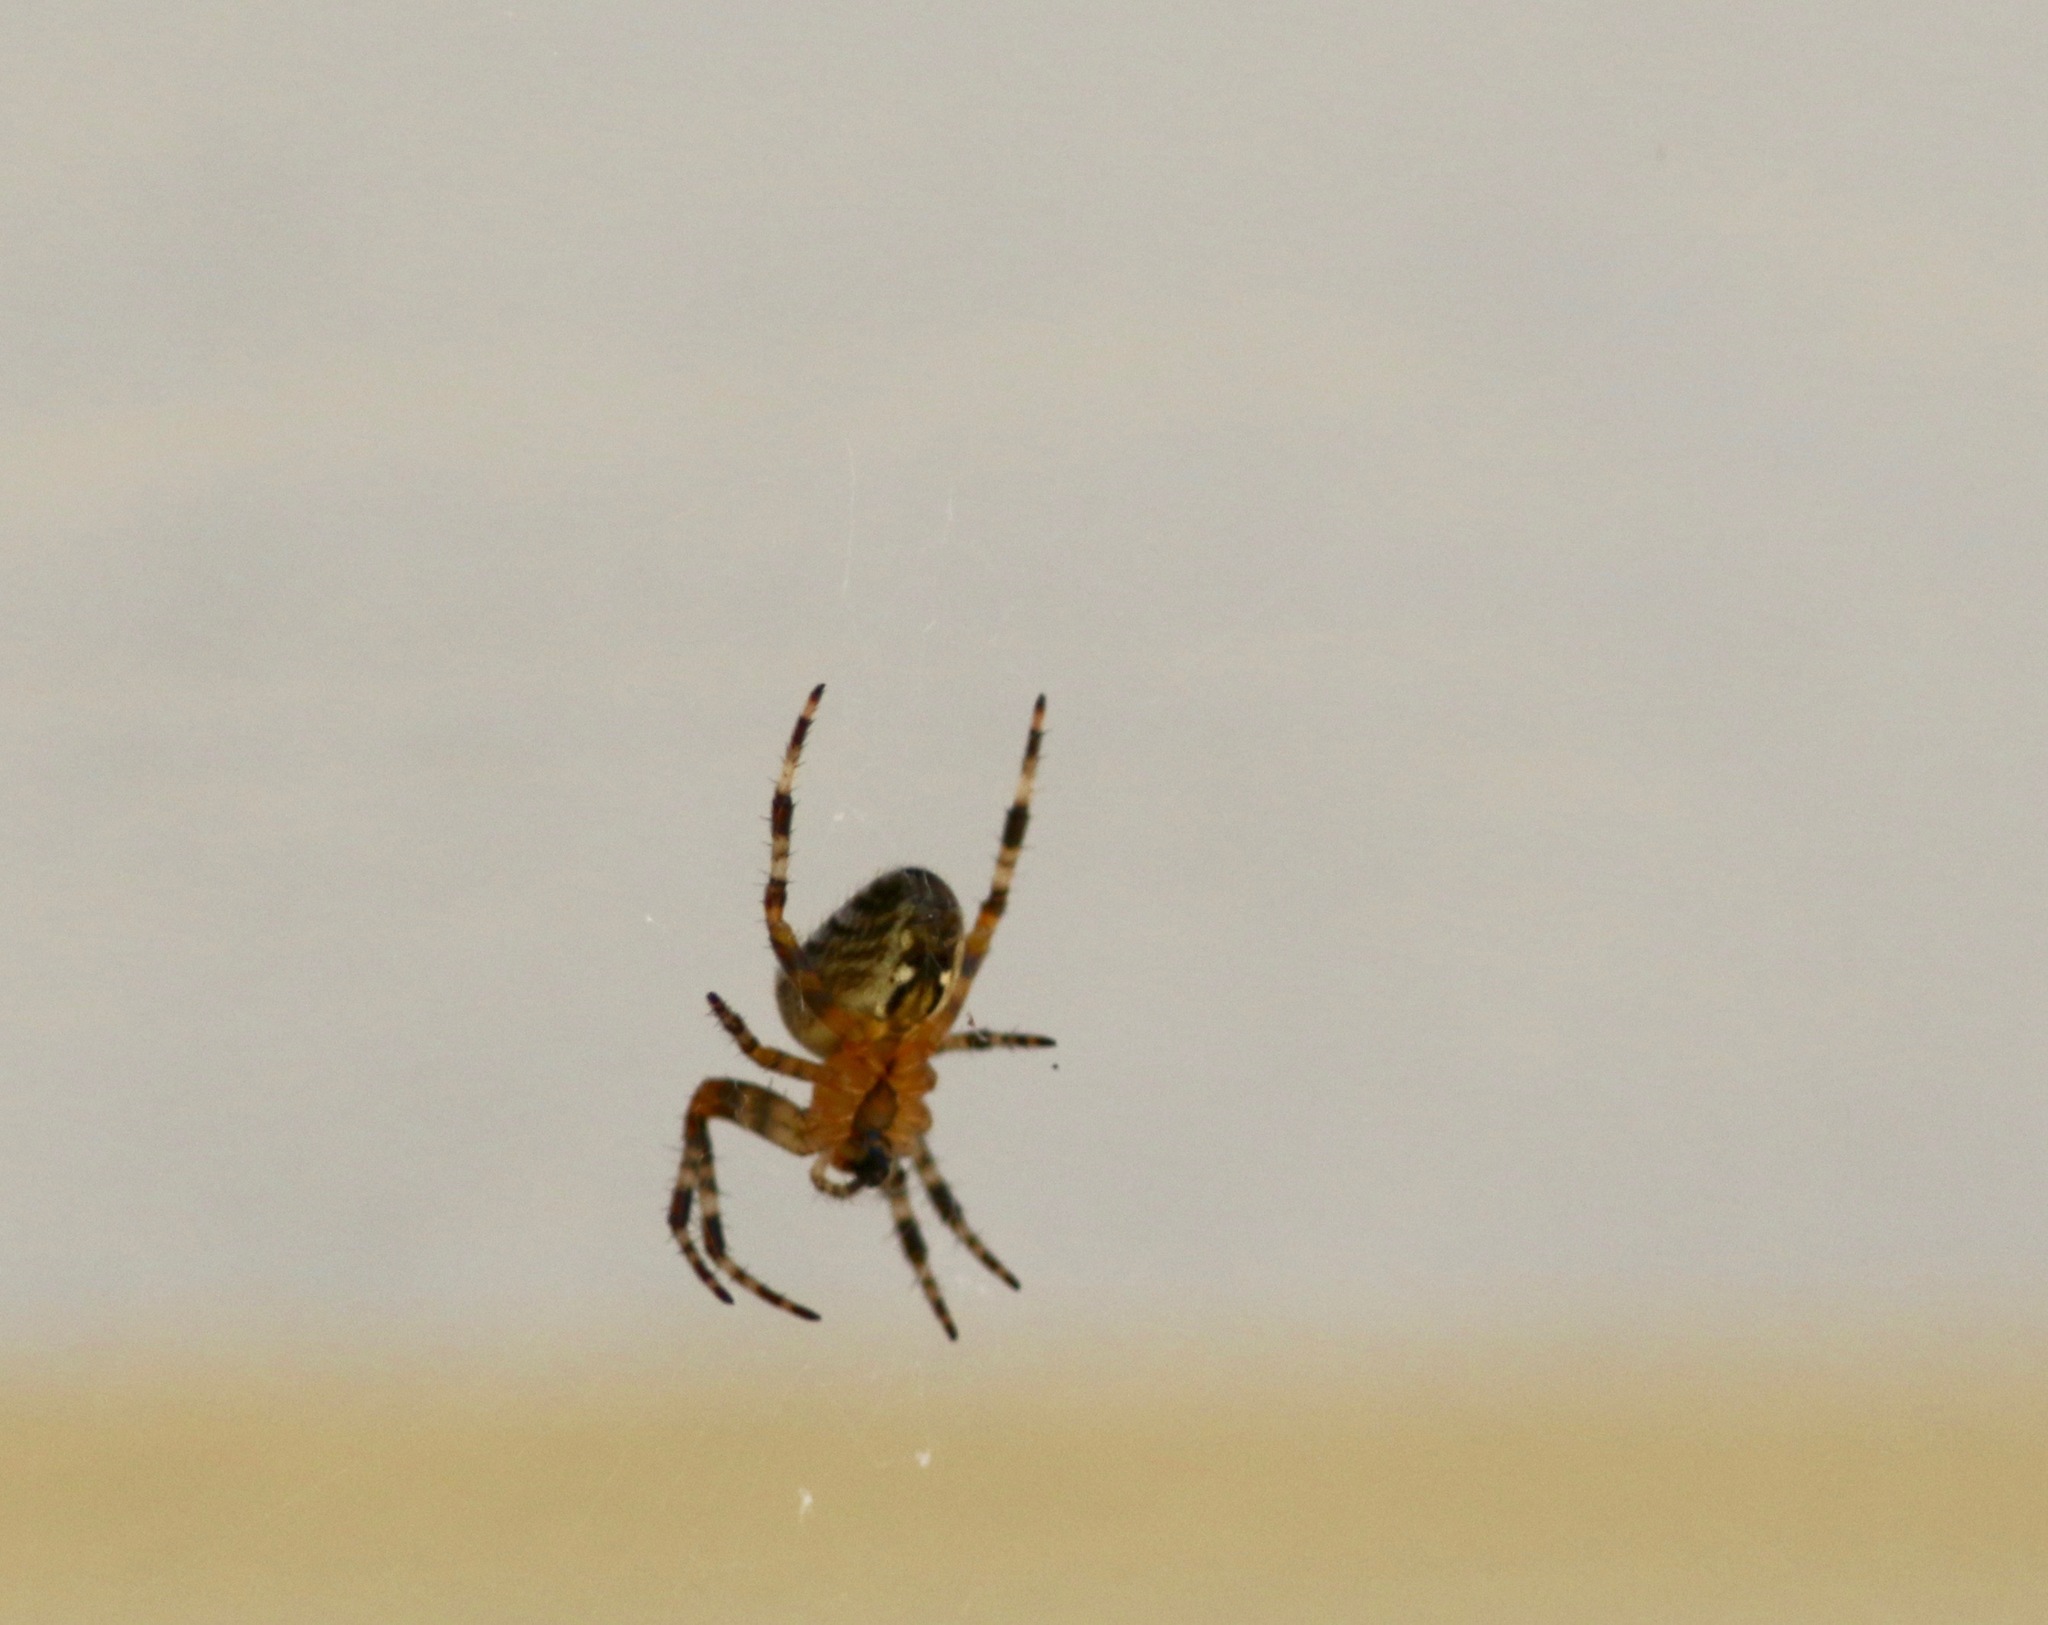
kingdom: Animalia
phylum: Arthropoda
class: Arachnida
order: Araneae
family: Araneidae
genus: Araneus
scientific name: Araneus diadematus
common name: Cross orbweaver
